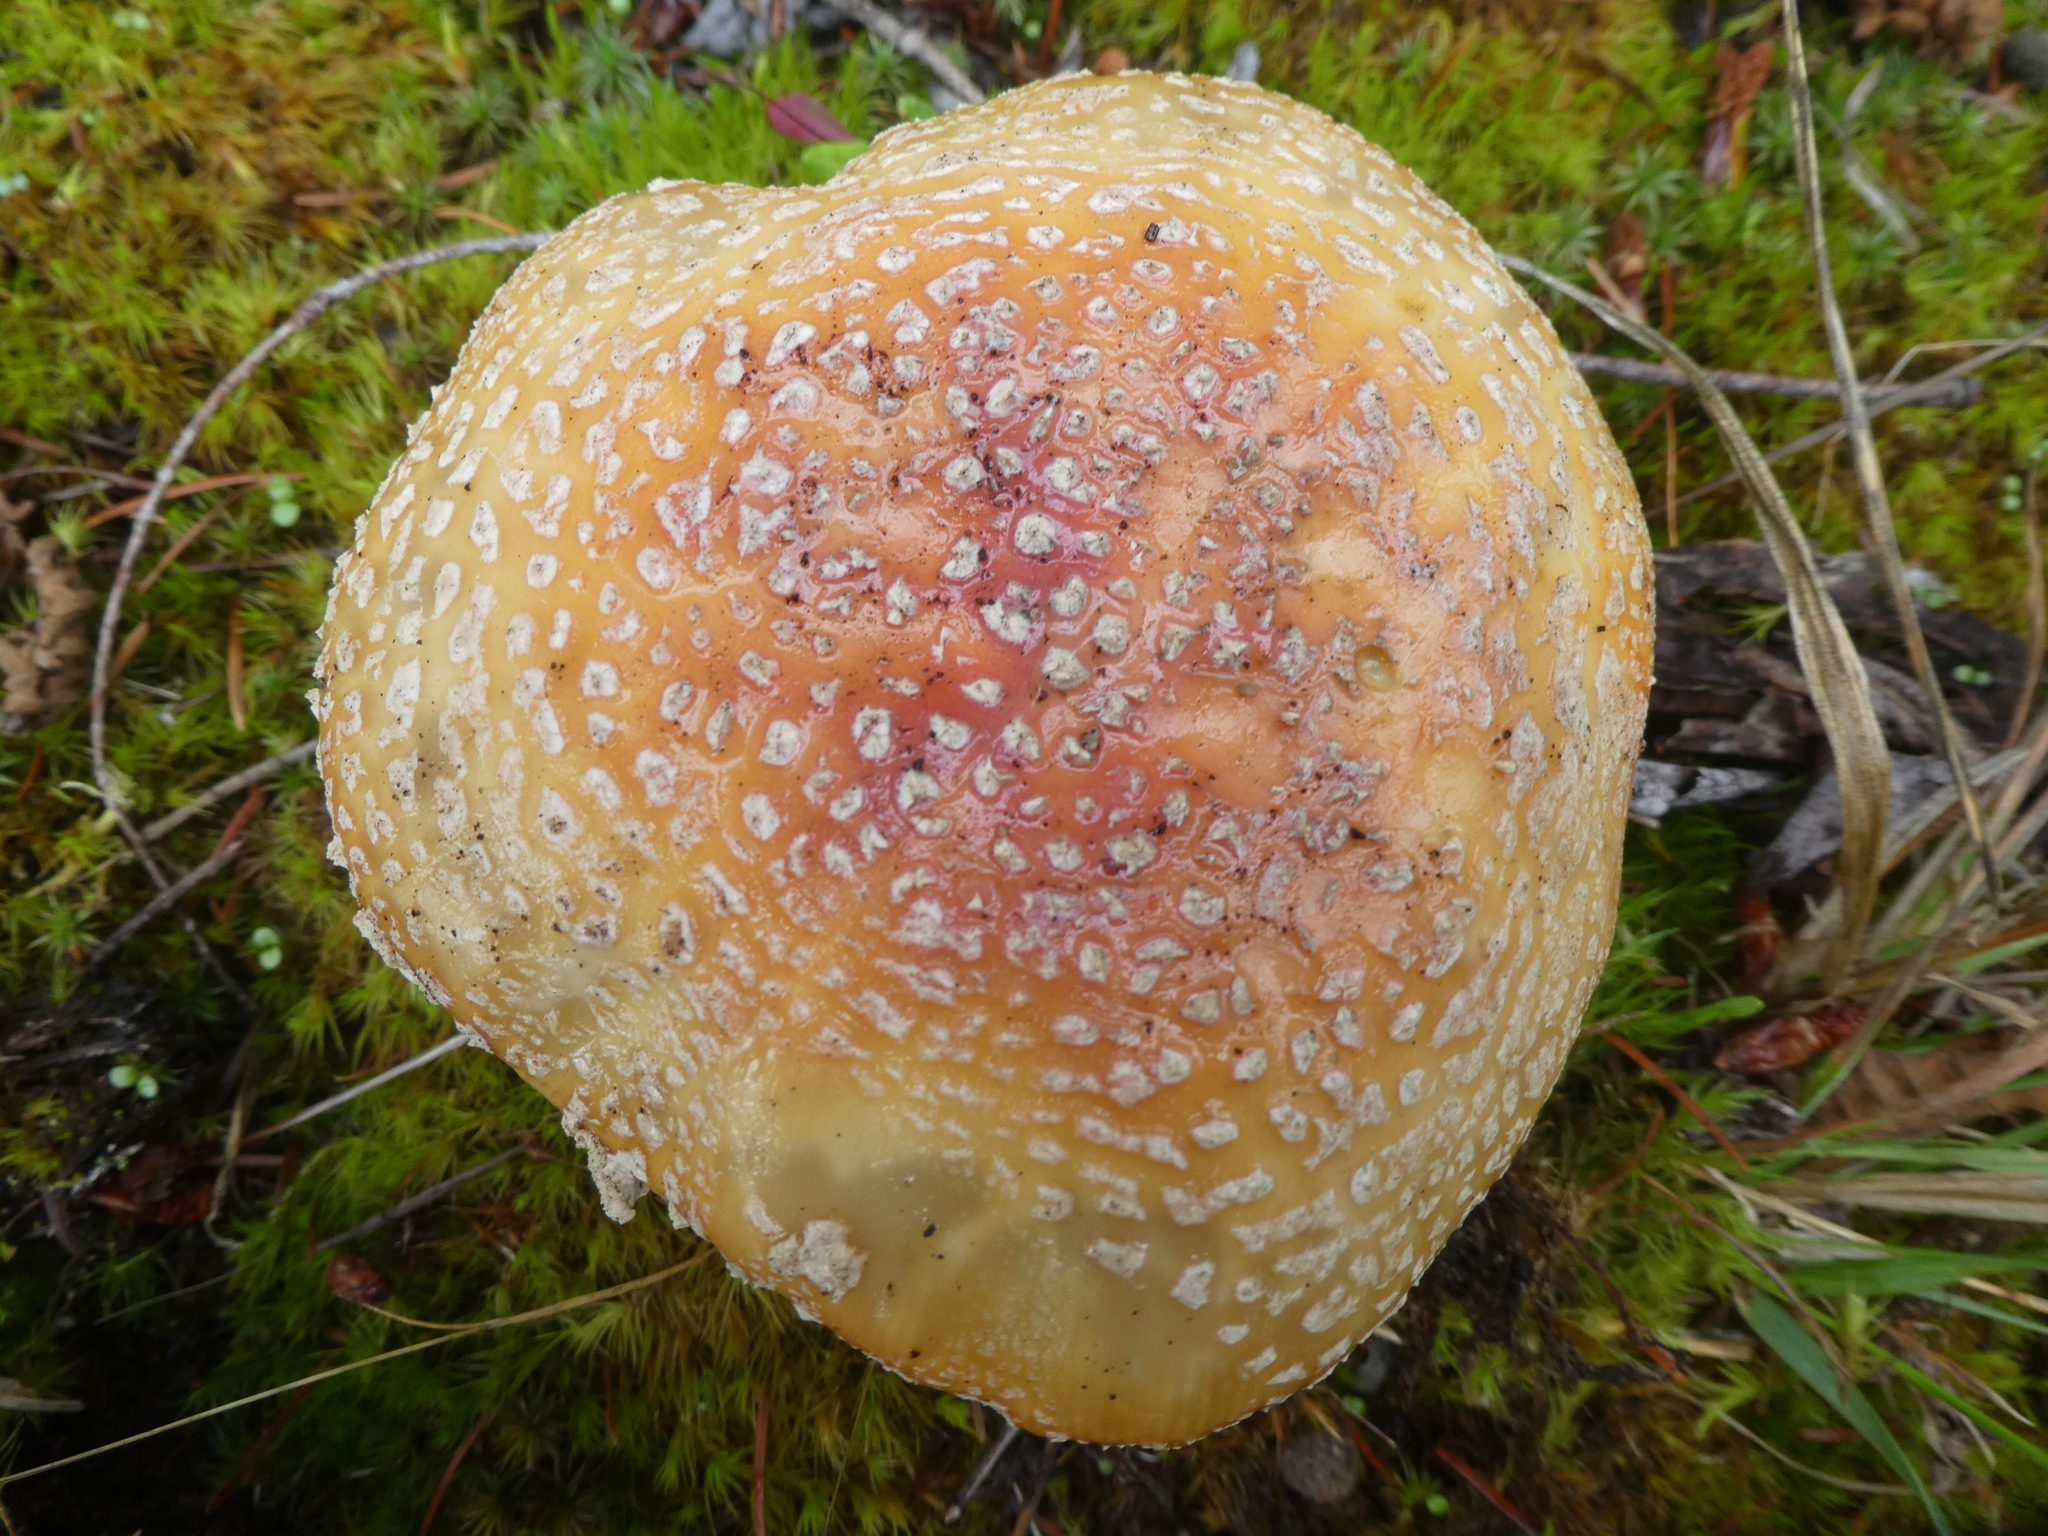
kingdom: Fungi
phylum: Basidiomycota
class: Agaricomycetes
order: Agaricales
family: Amanitaceae
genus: Amanita
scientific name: Amanita muscaria
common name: Fly agaric
